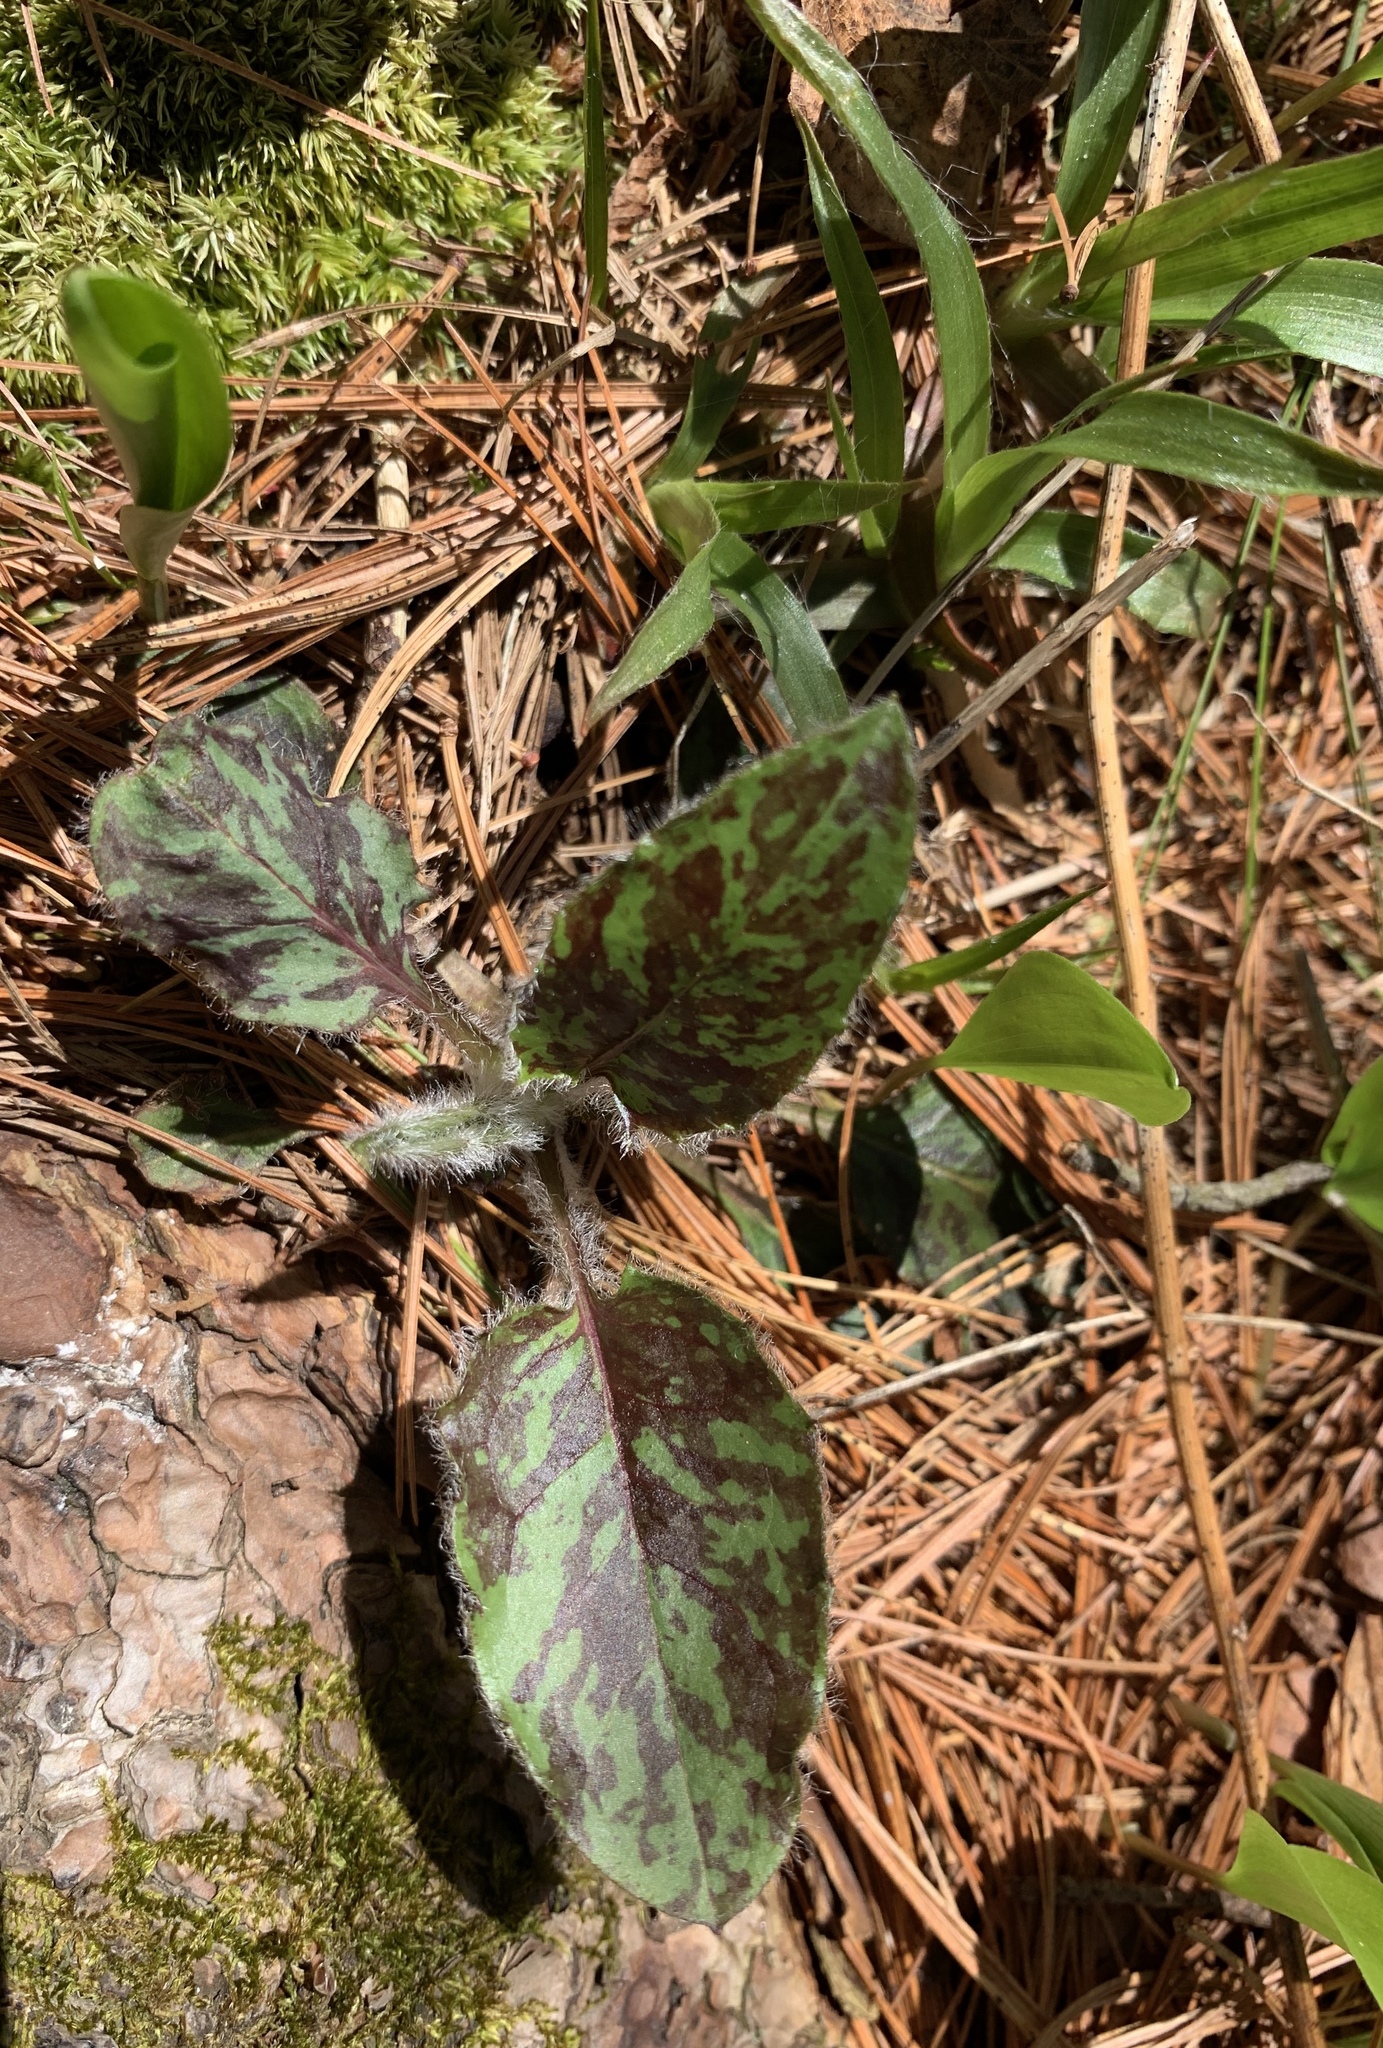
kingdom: Plantae
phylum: Tracheophyta
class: Magnoliopsida
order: Asterales
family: Asteraceae
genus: Hieracium
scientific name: Hieracium maculatum
